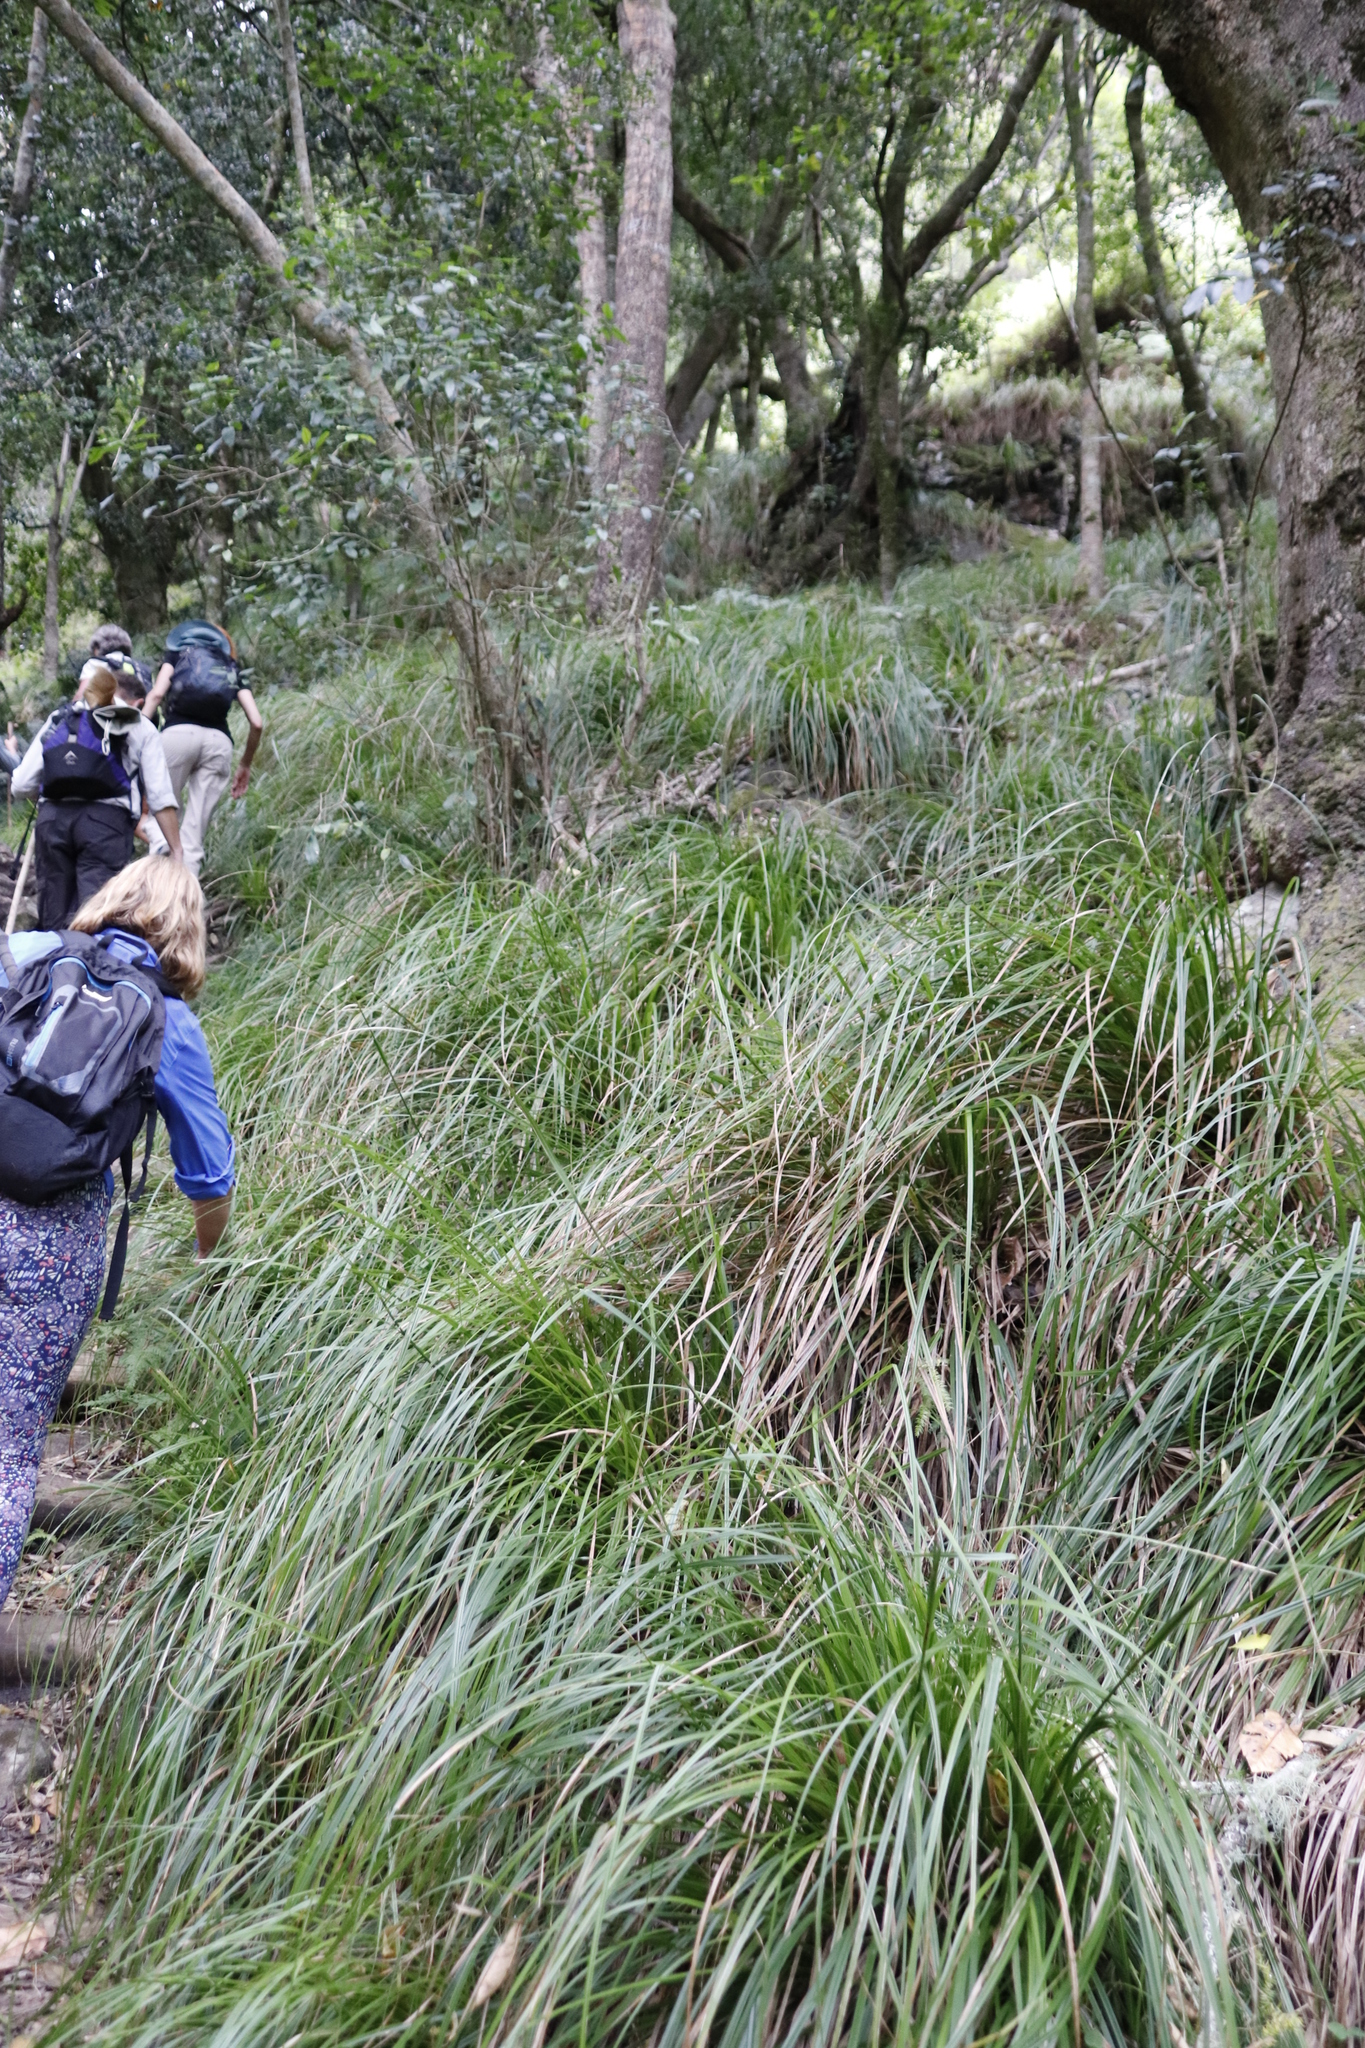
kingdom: Plantae
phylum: Tracheophyta
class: Liliopsida
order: Poales
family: Cyperaceae
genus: Carex
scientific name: Carex lancea
